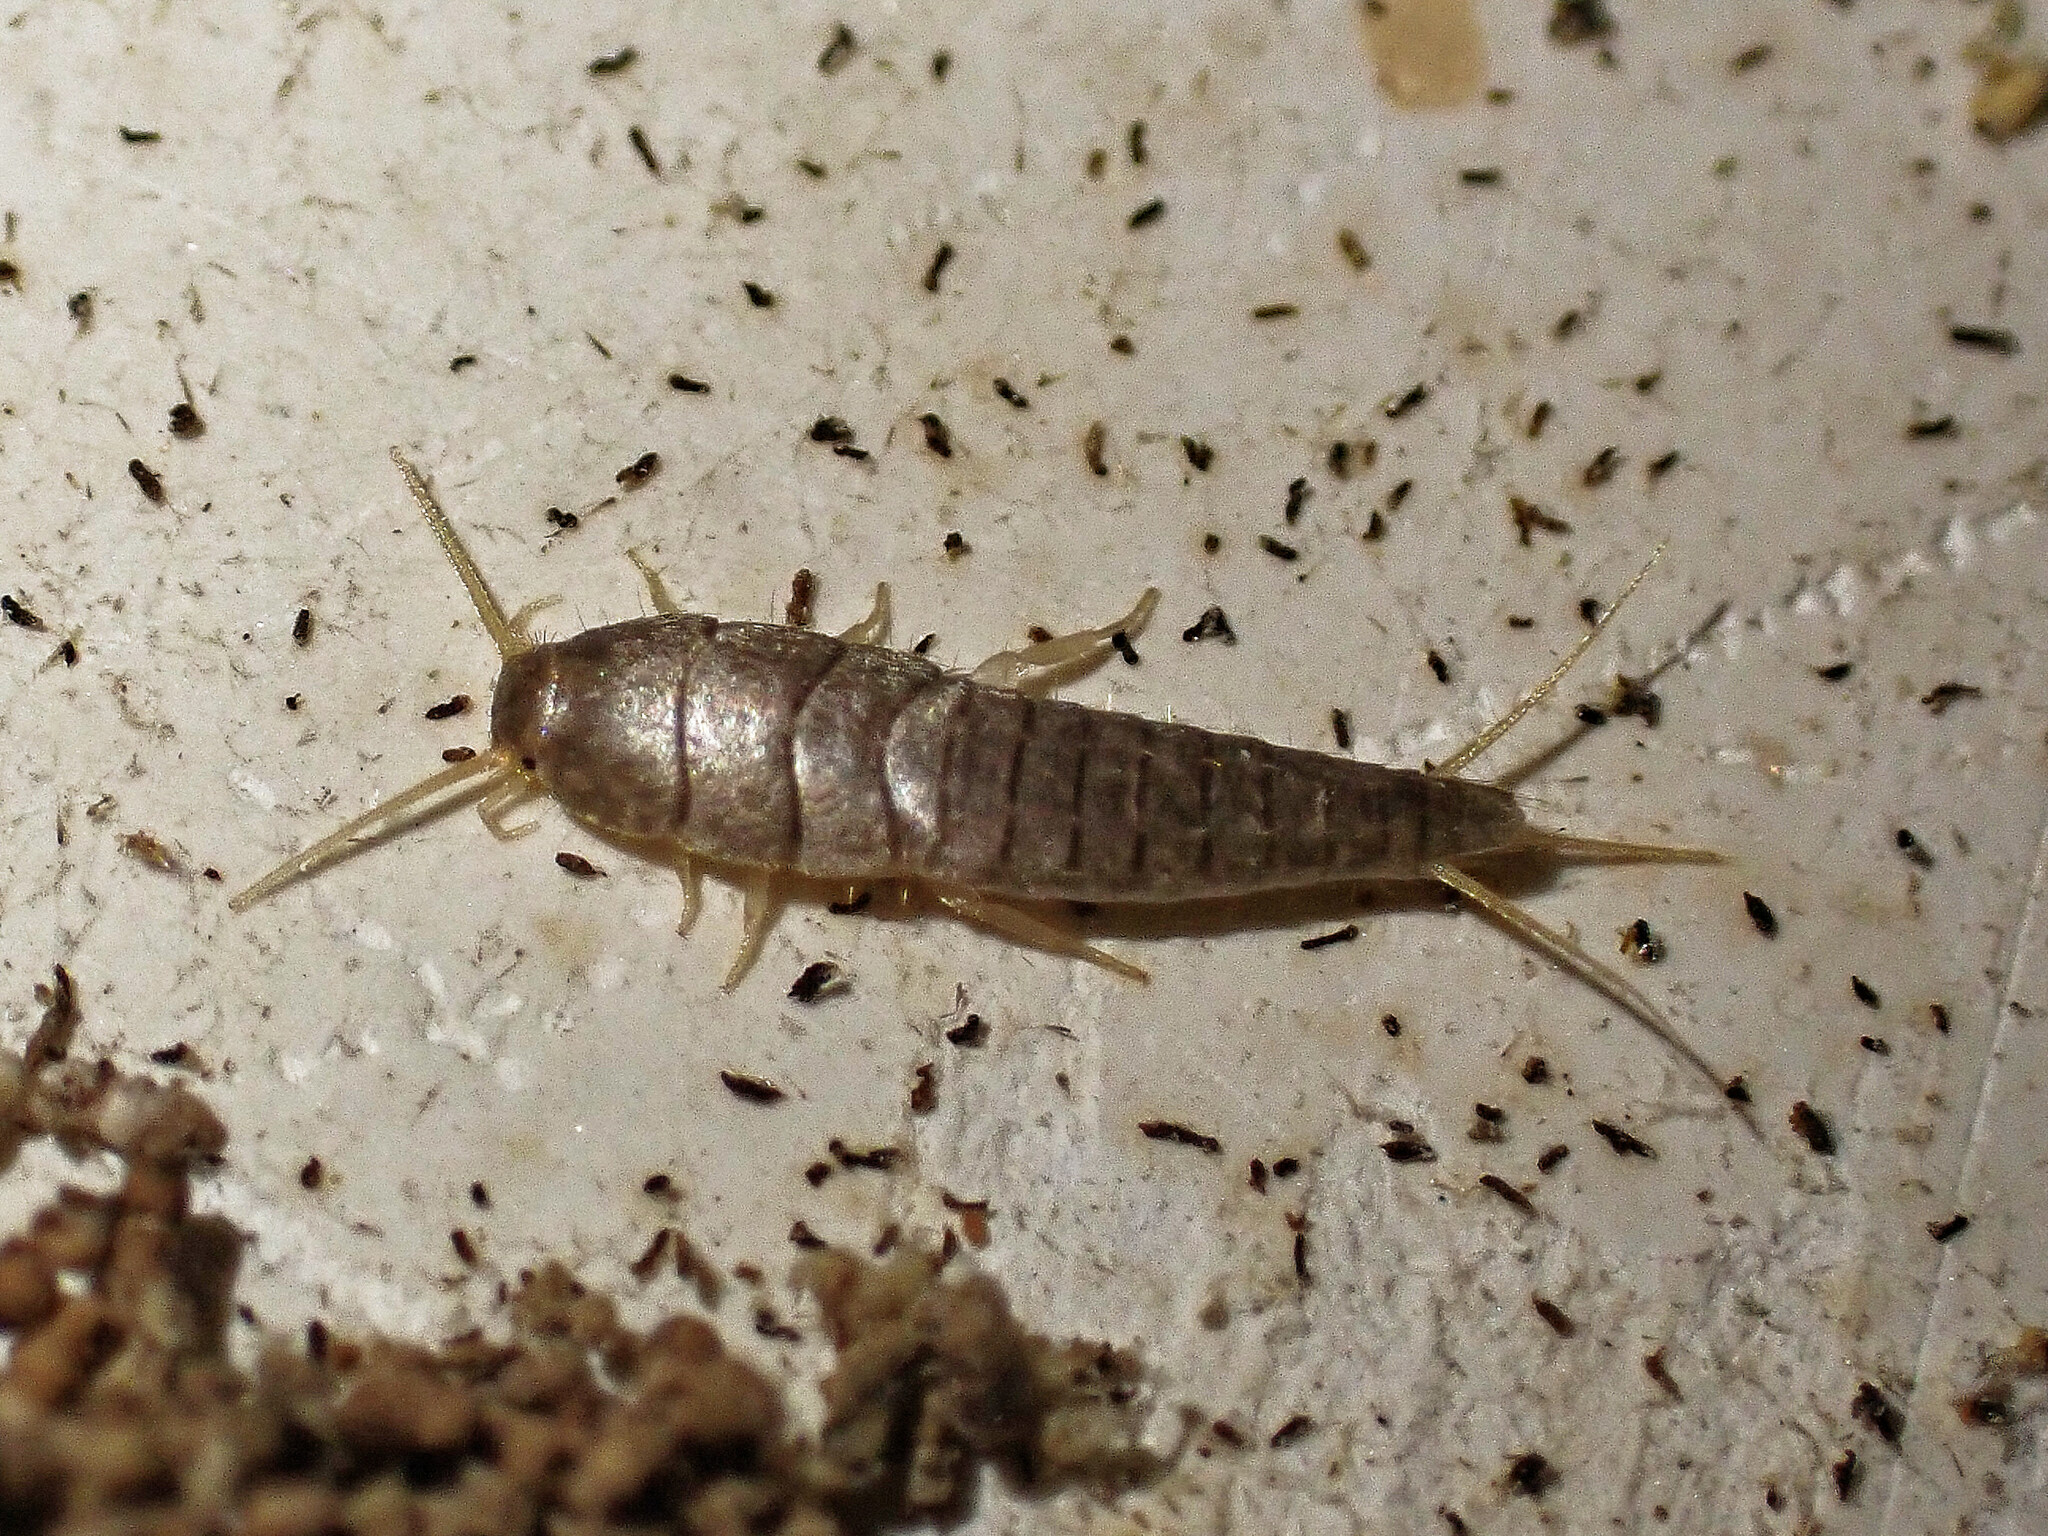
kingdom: Animalia
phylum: Arthropoda
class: Insecta
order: Zygentoma
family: Lepismatidae
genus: Lepisma
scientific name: Lepisma saccharinum
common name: Silverfish
